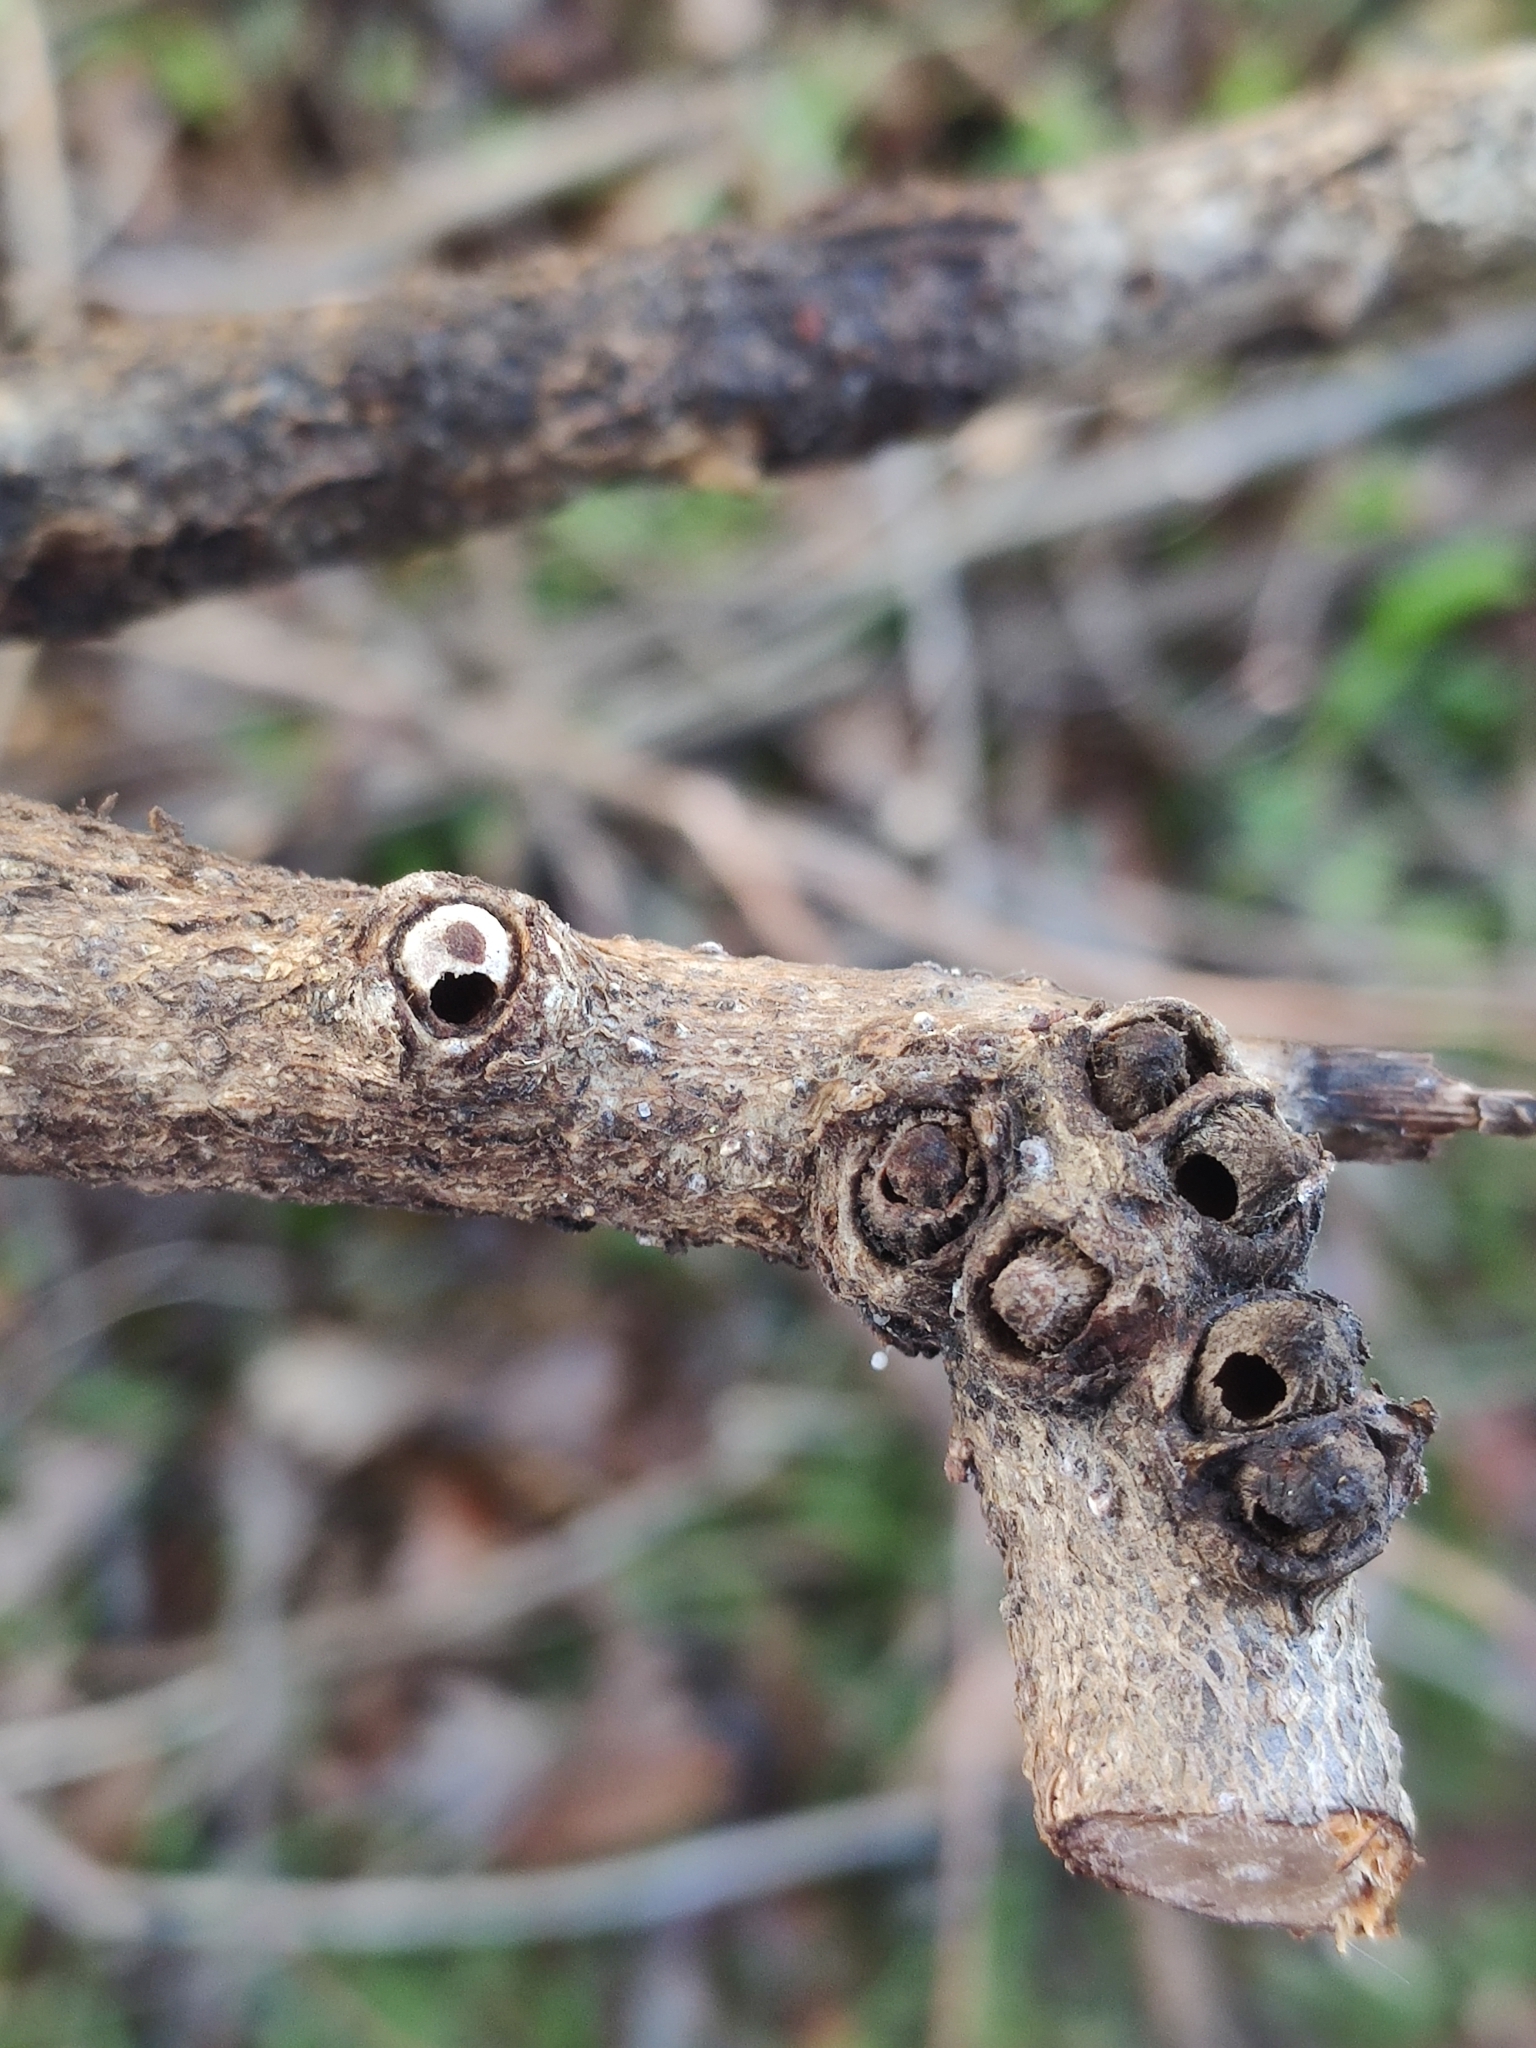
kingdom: Animalia
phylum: Arthropoda
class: Insecta
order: Hymenoptera
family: Cynipidae
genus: Andricus
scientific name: Andricus quercuscorticis
